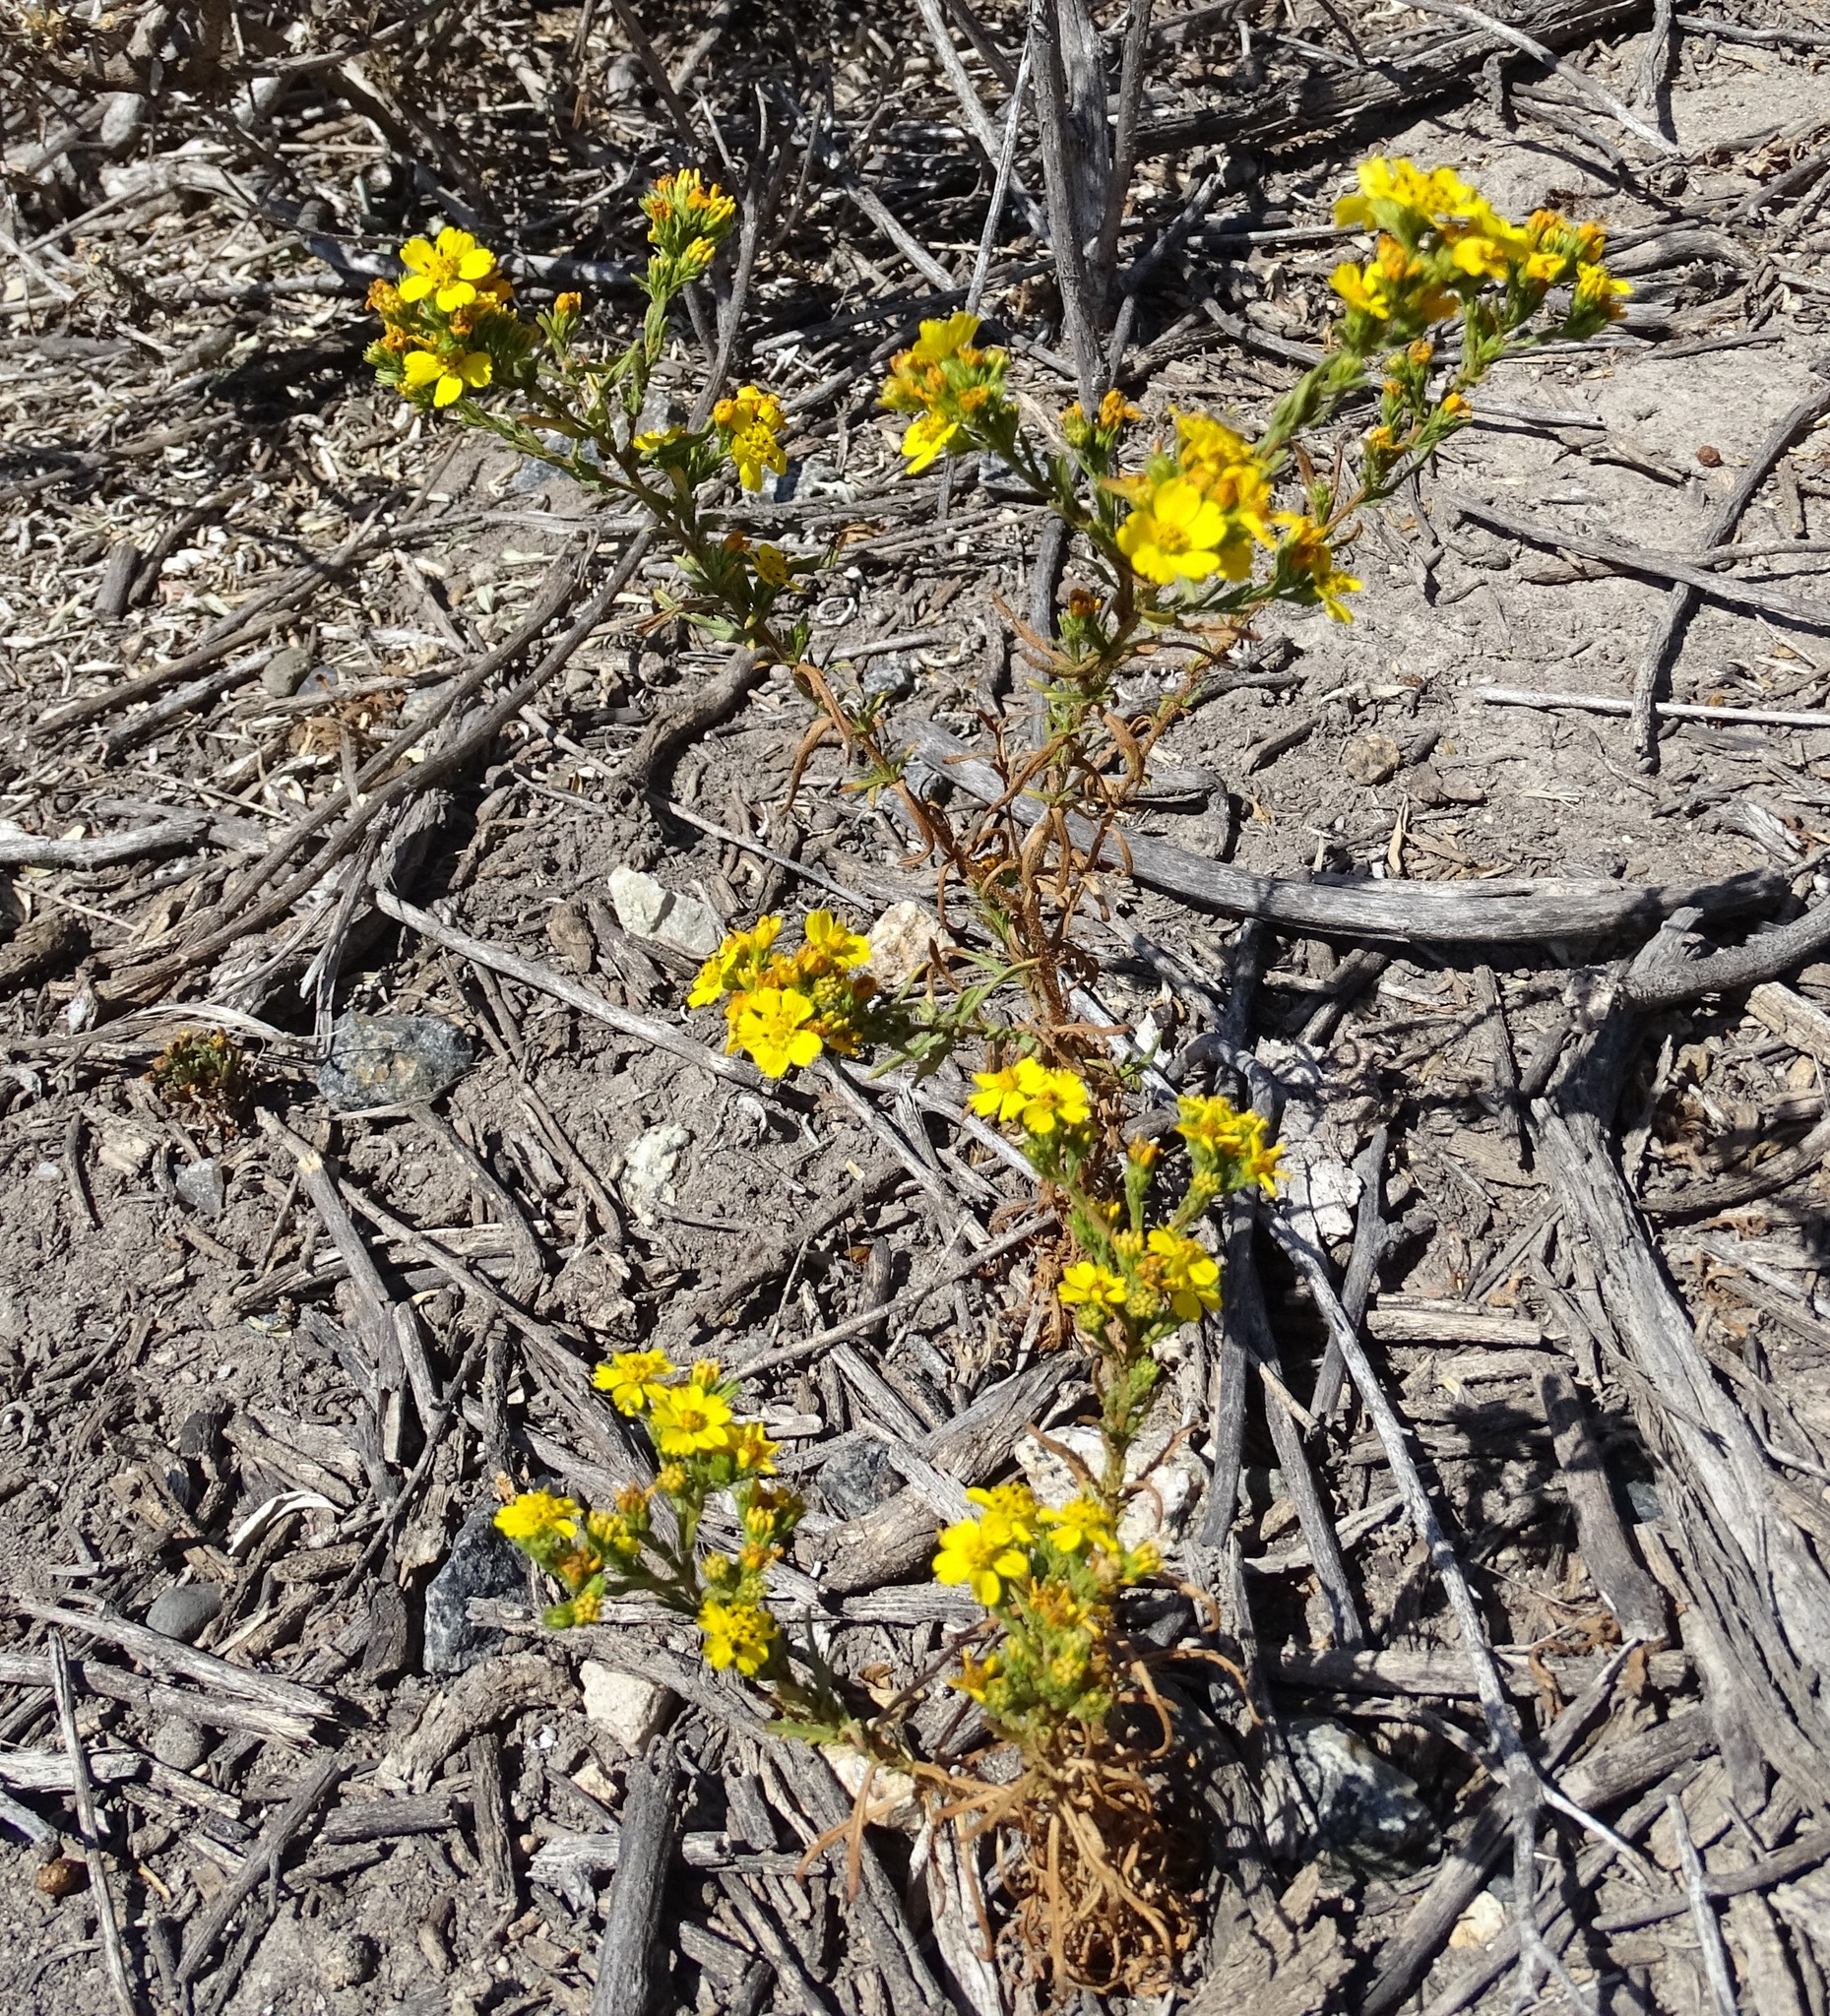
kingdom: Plantae
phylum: Tracheophyta
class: Magnoliopsida
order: Asterales
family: Asteraceae
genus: Deinandra
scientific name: Deinandra fasciculata
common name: Clustered tarweed
